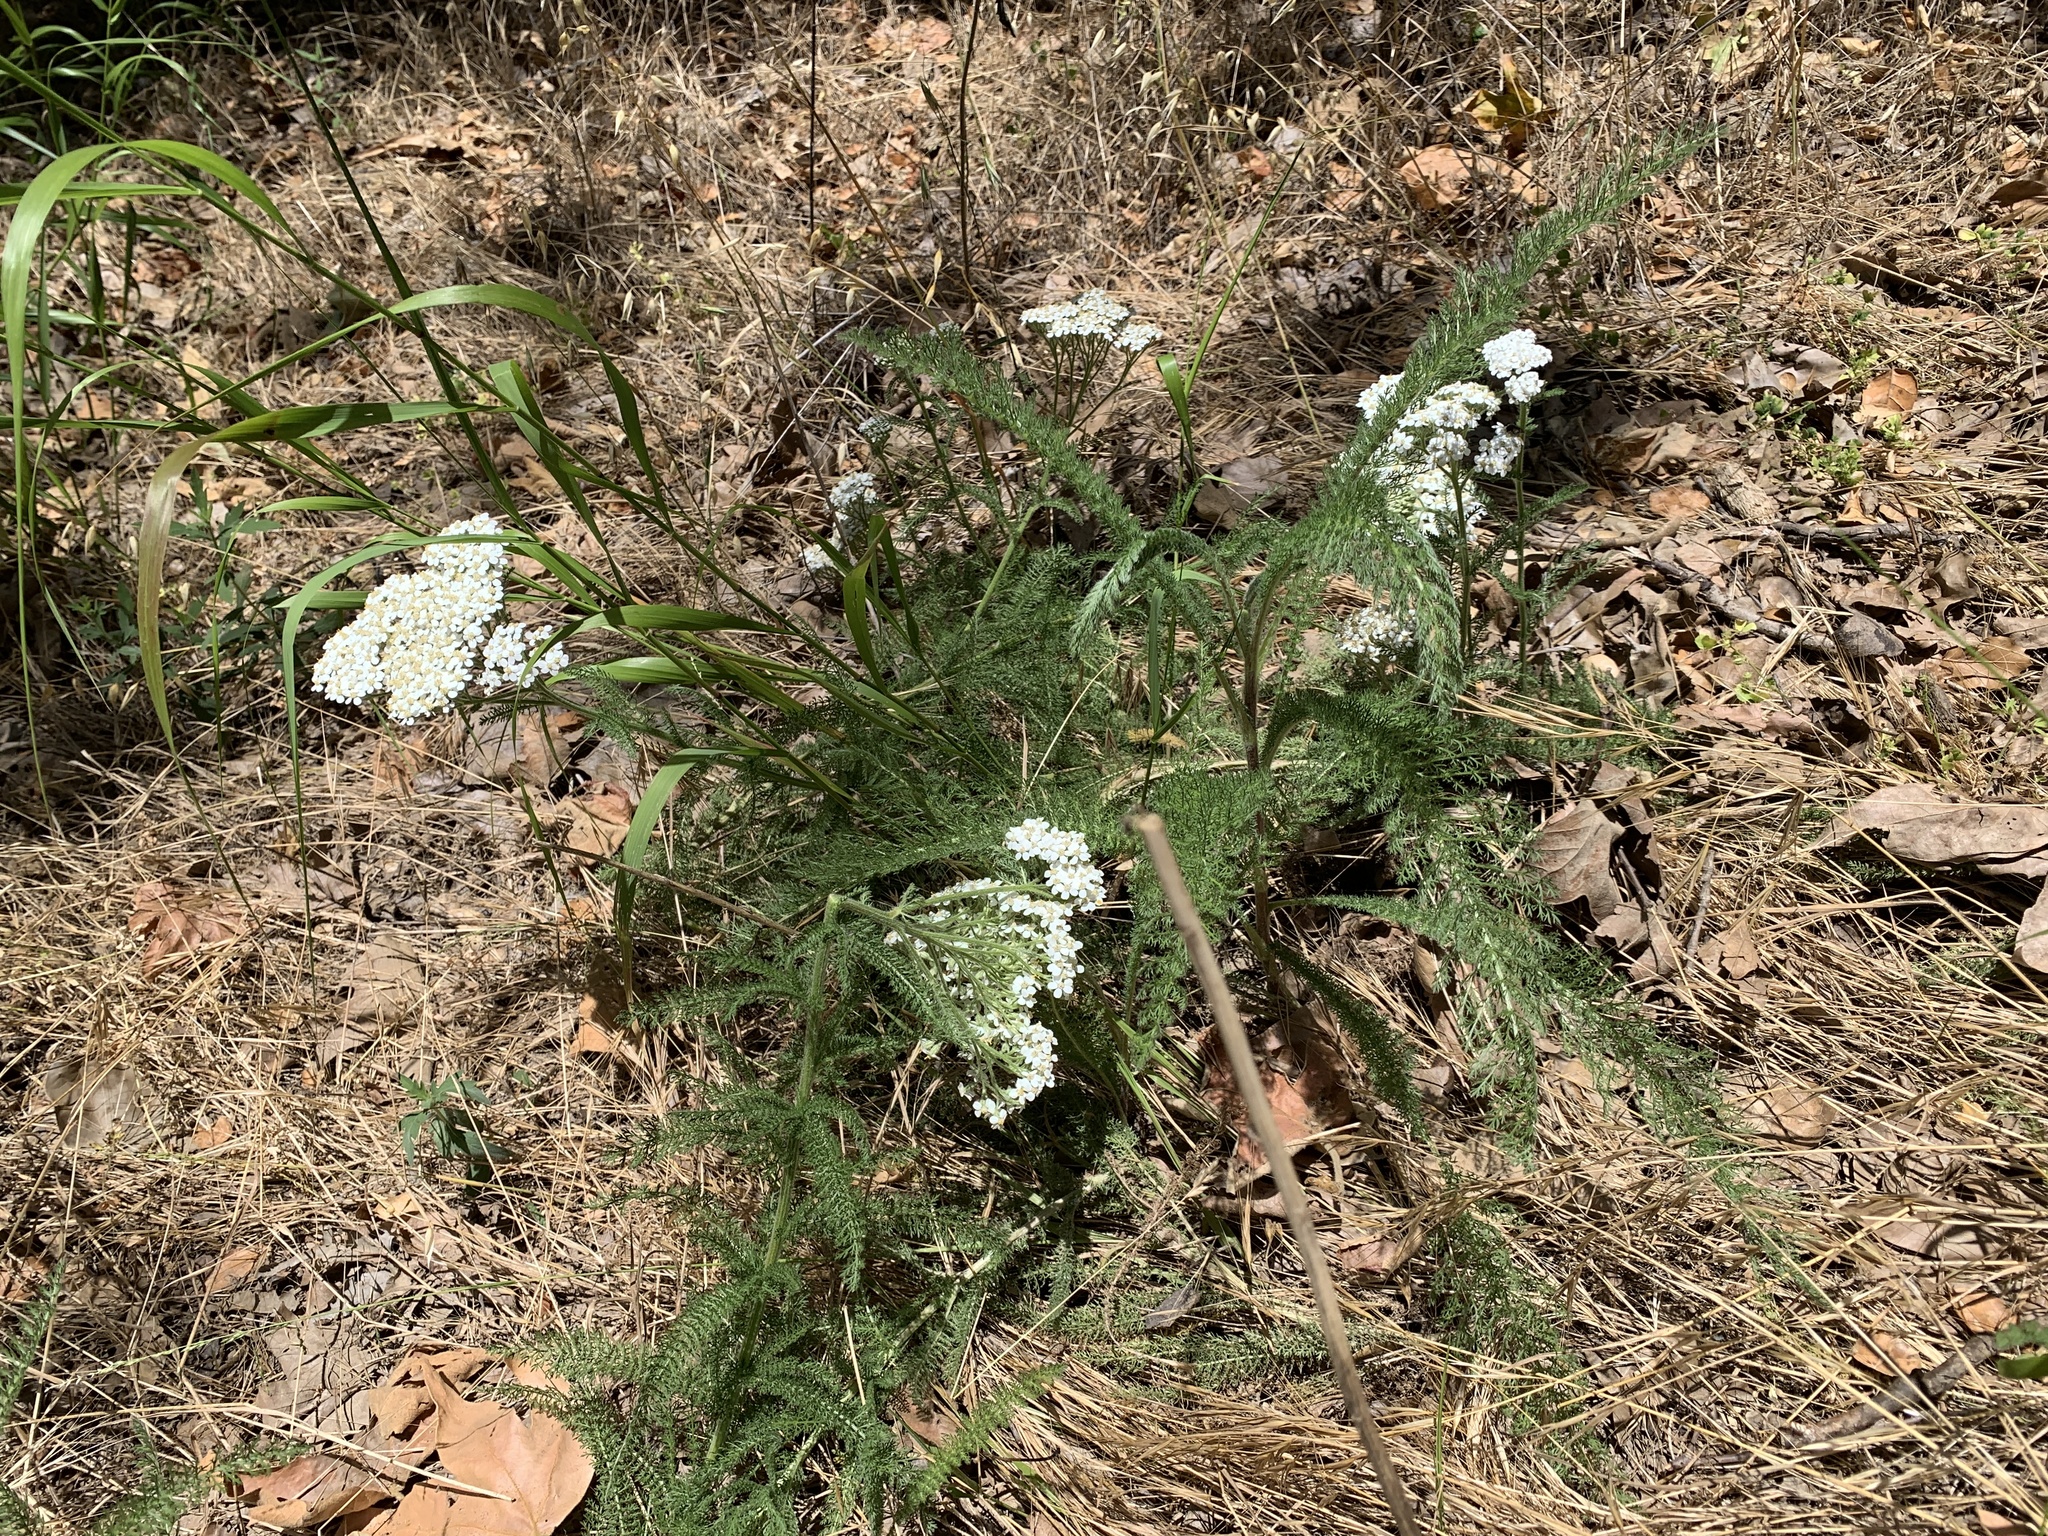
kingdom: Plantae
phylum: Tracheophyta
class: Magnoliopsida
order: Asterales
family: Asteraceae
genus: Achillea
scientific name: Achillea millefolium
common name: Yarrow
